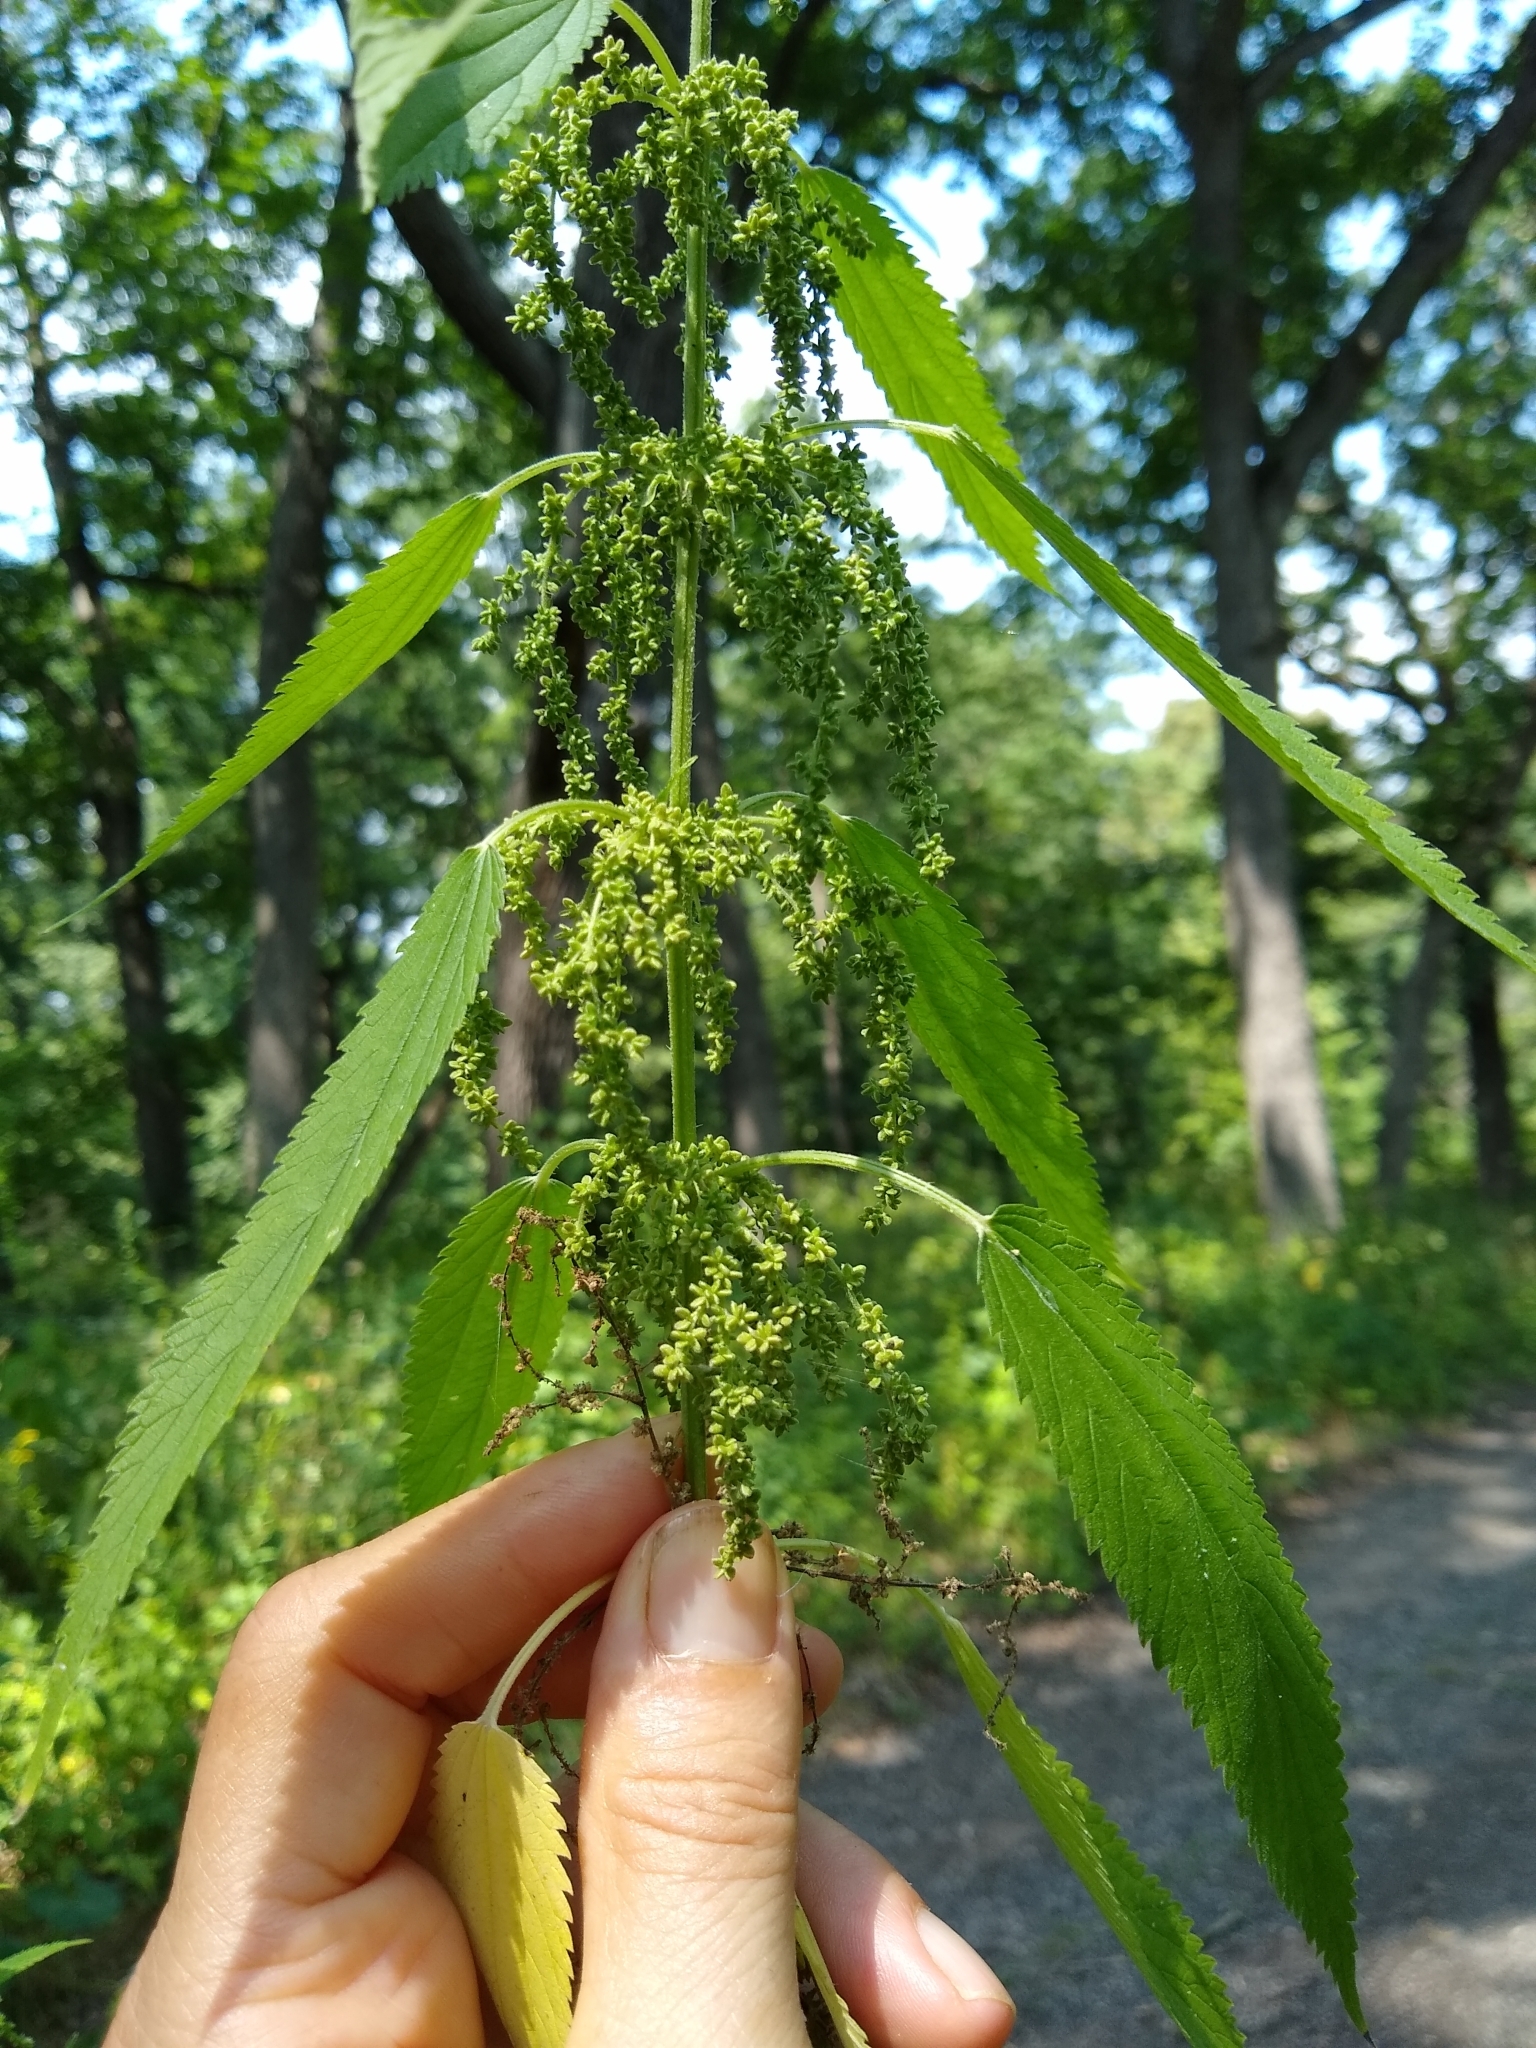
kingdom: Plantae
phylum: Tracheophyta
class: Magnoliopsida
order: Rosales
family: Urticaceae
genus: Urtica
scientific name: Urtica dioica
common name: Common nettle
